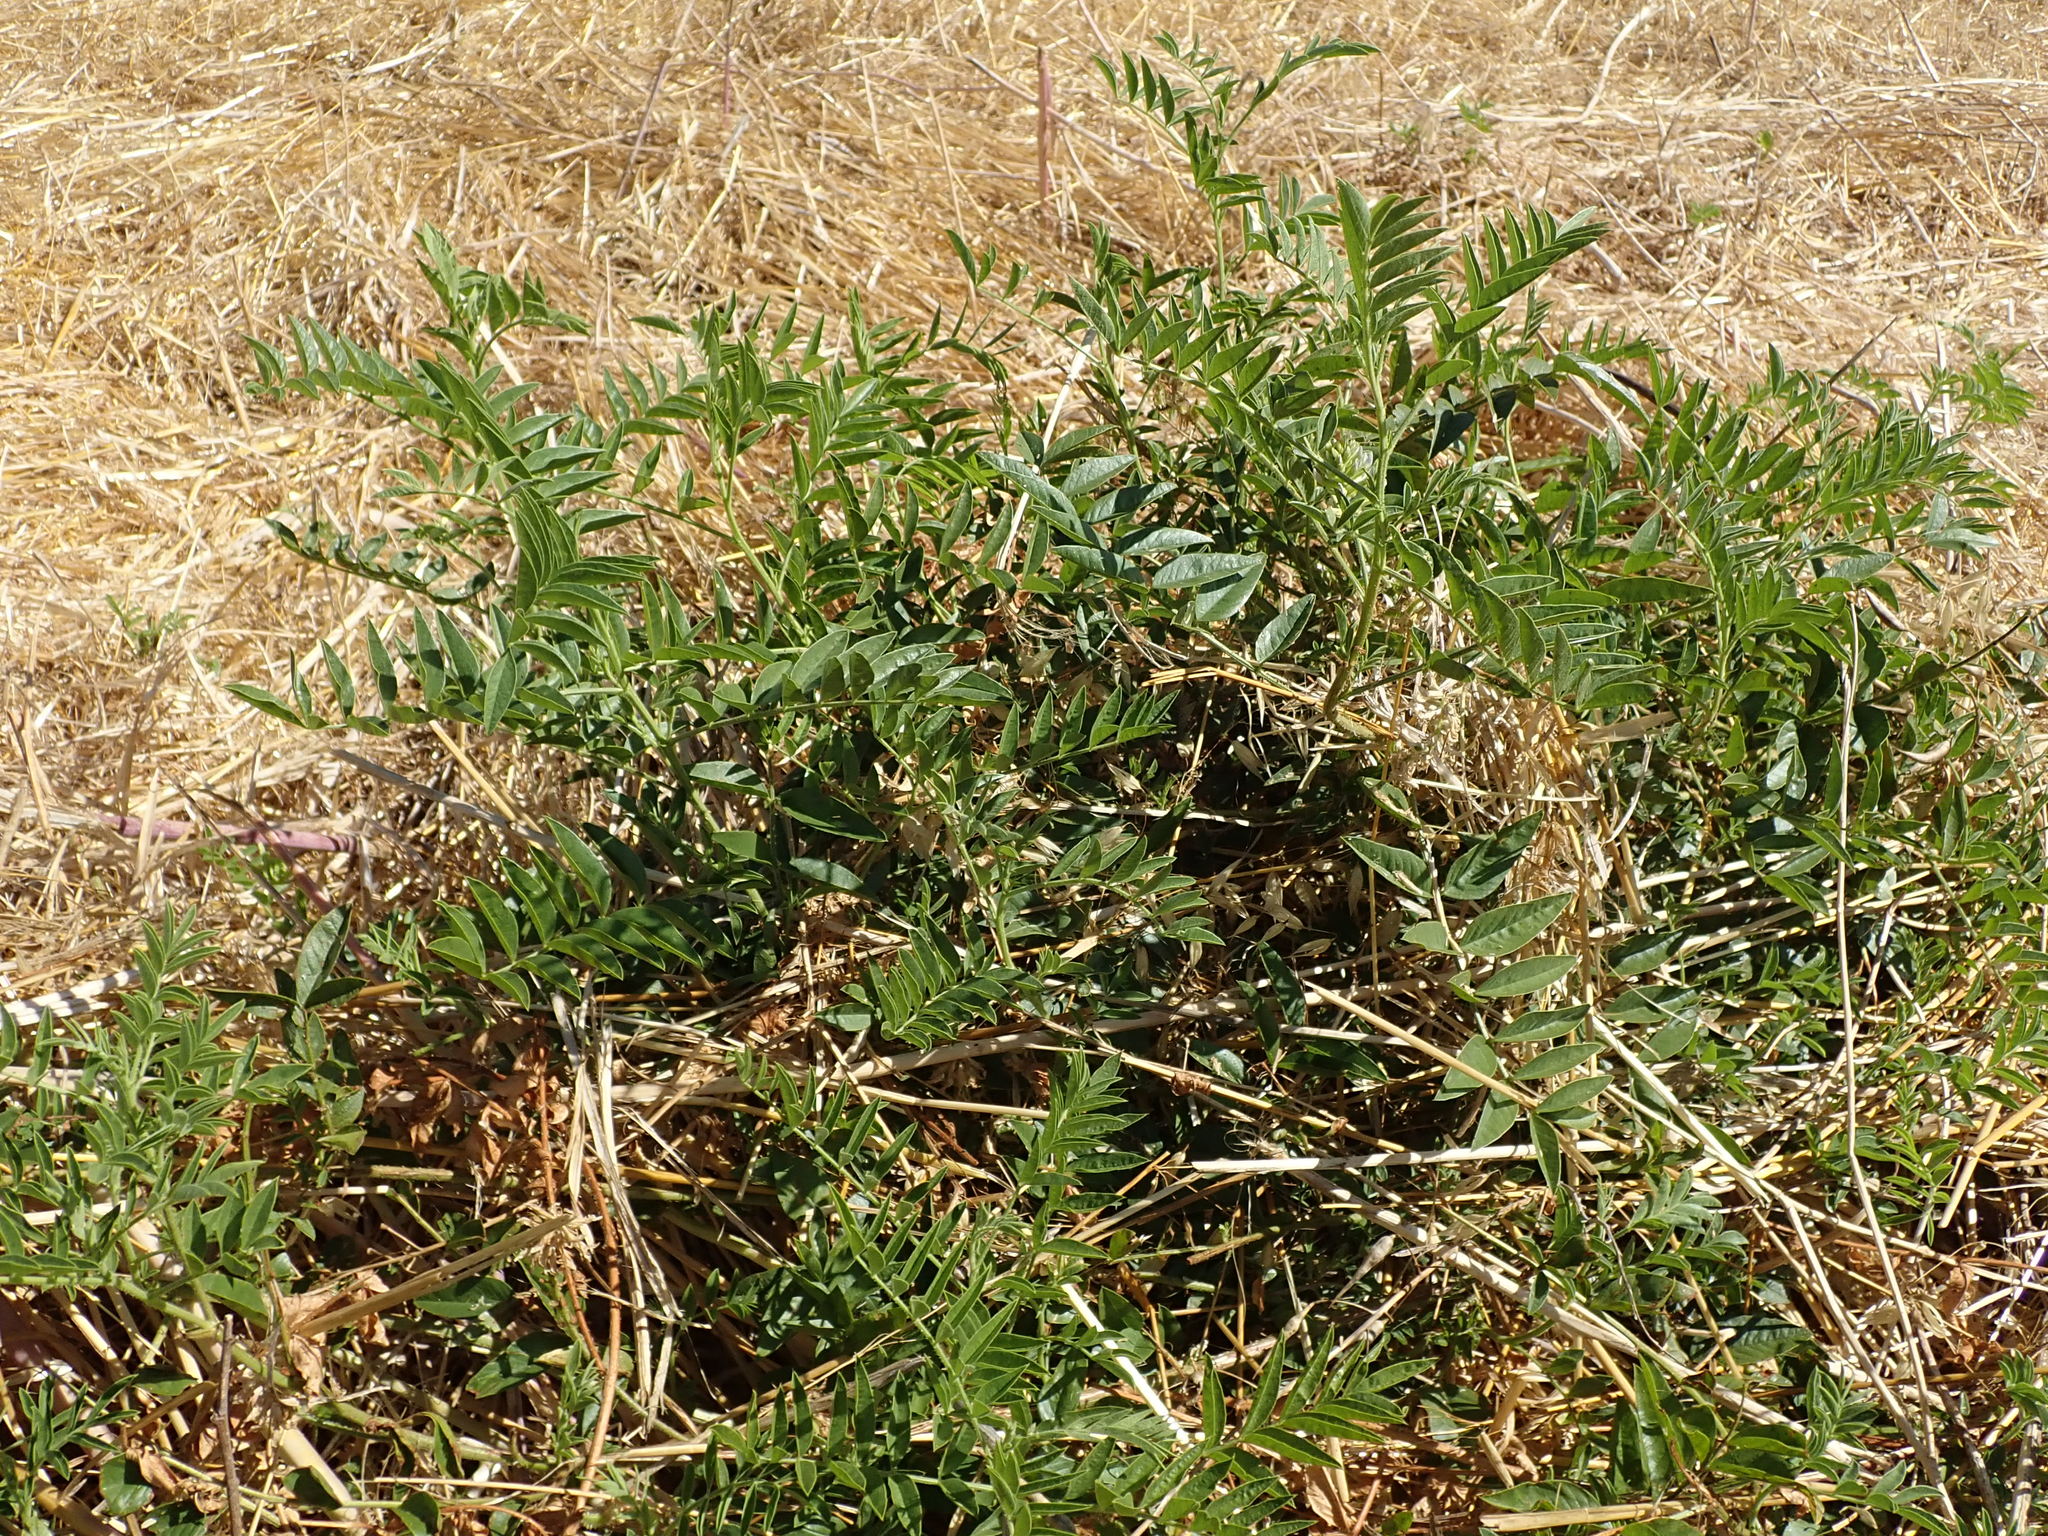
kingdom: Plantae
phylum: Tracheophyta
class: Magnoliopsida
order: Fabales
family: Fabaceae
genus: Glycyrrhiza
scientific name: Glycyrrhiza lepidota
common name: American liquorice
